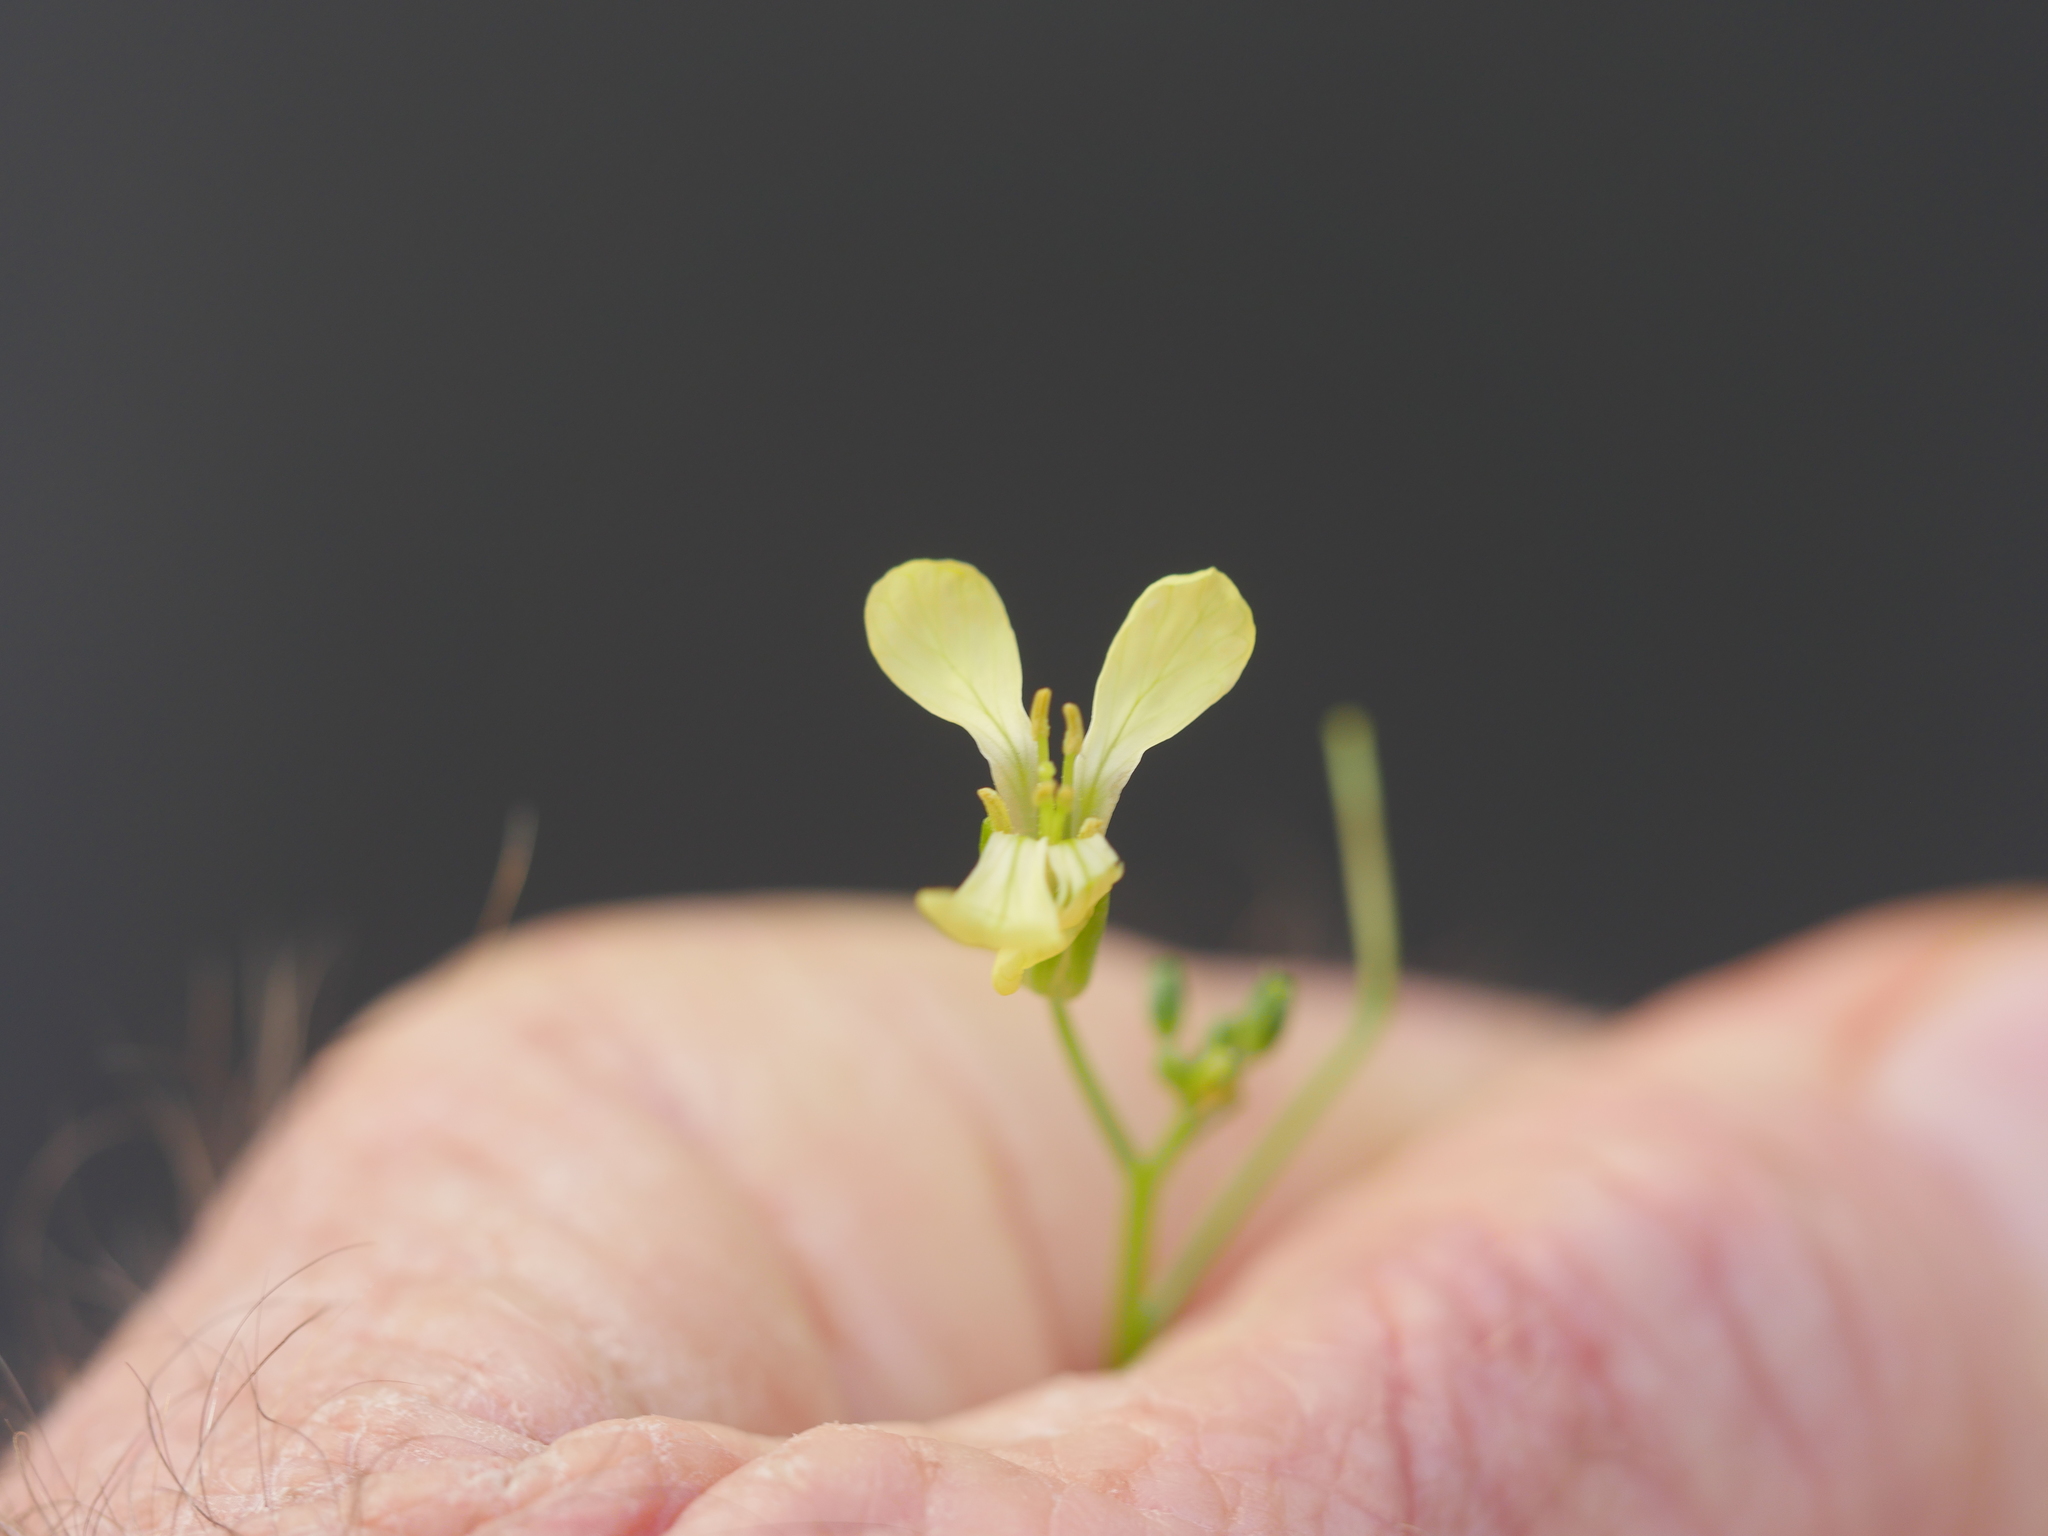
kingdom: Plantae
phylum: Tracheophyta
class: Magnoliopsida
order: Brassicales
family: Brassicaceae
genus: Raphanus
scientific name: Raphanus raphanistrum
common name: Wild radish
